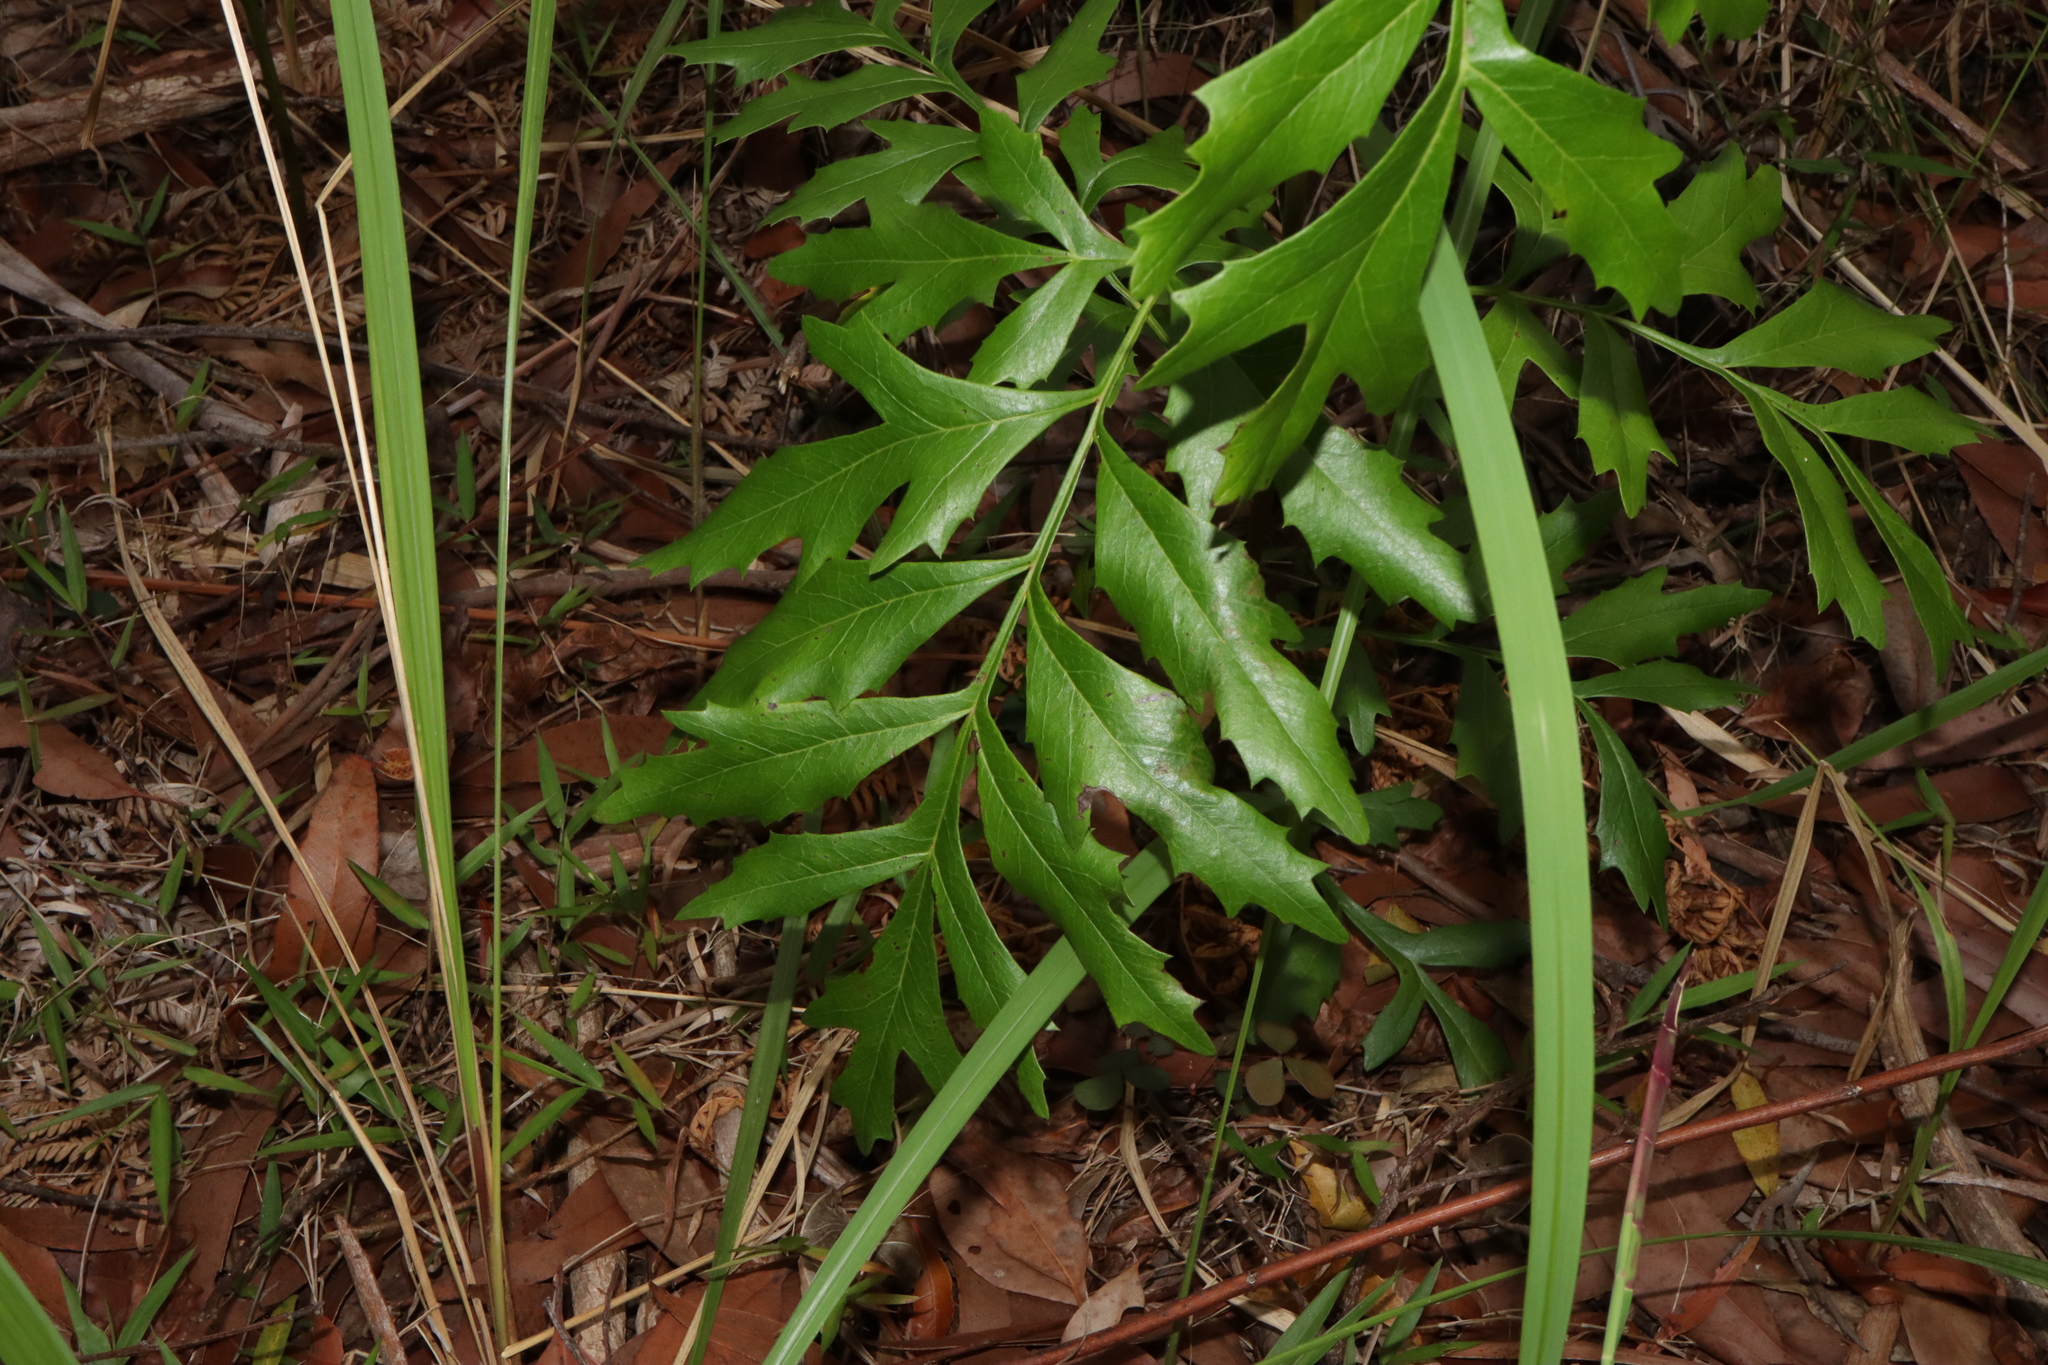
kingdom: Plantae
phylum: Tracheophyta
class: Magnoliopsida
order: Proteales
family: Proteaceae
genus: Lomatia
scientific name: Lomatia silaifolia
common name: Crinklebush
